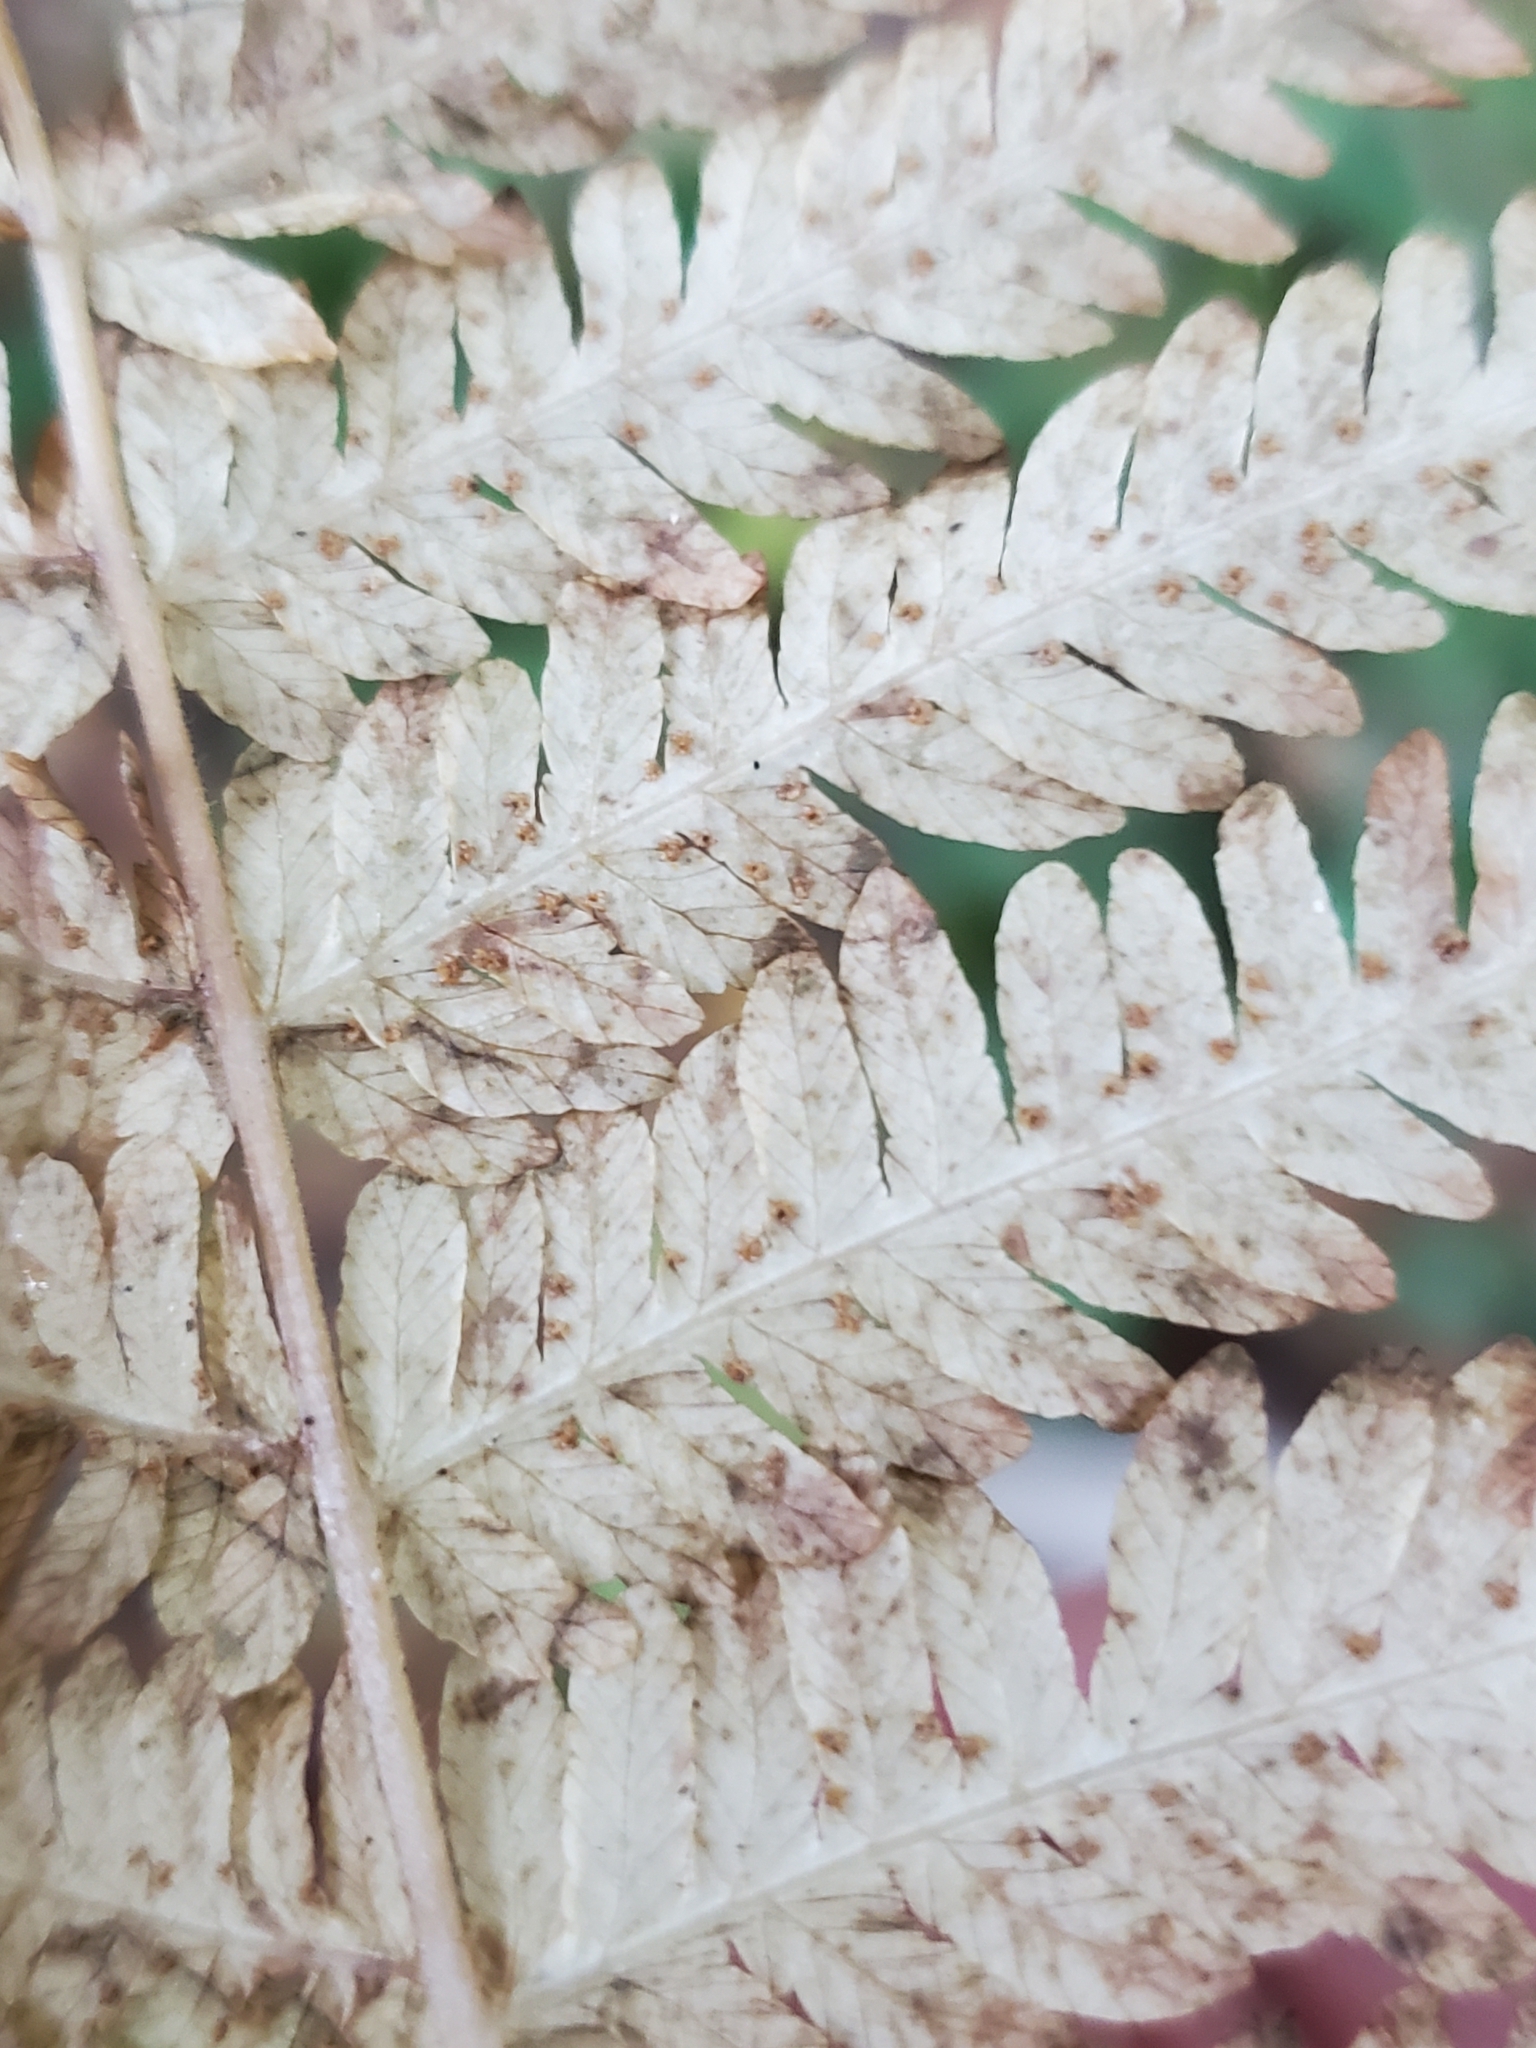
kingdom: Plantae
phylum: Tracheophyta
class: Polypodiopsida
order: Polypodiales
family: Thelypteridaceae
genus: Amauropelta
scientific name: Amauropelta nevadensis
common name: Nevada marsh fern
